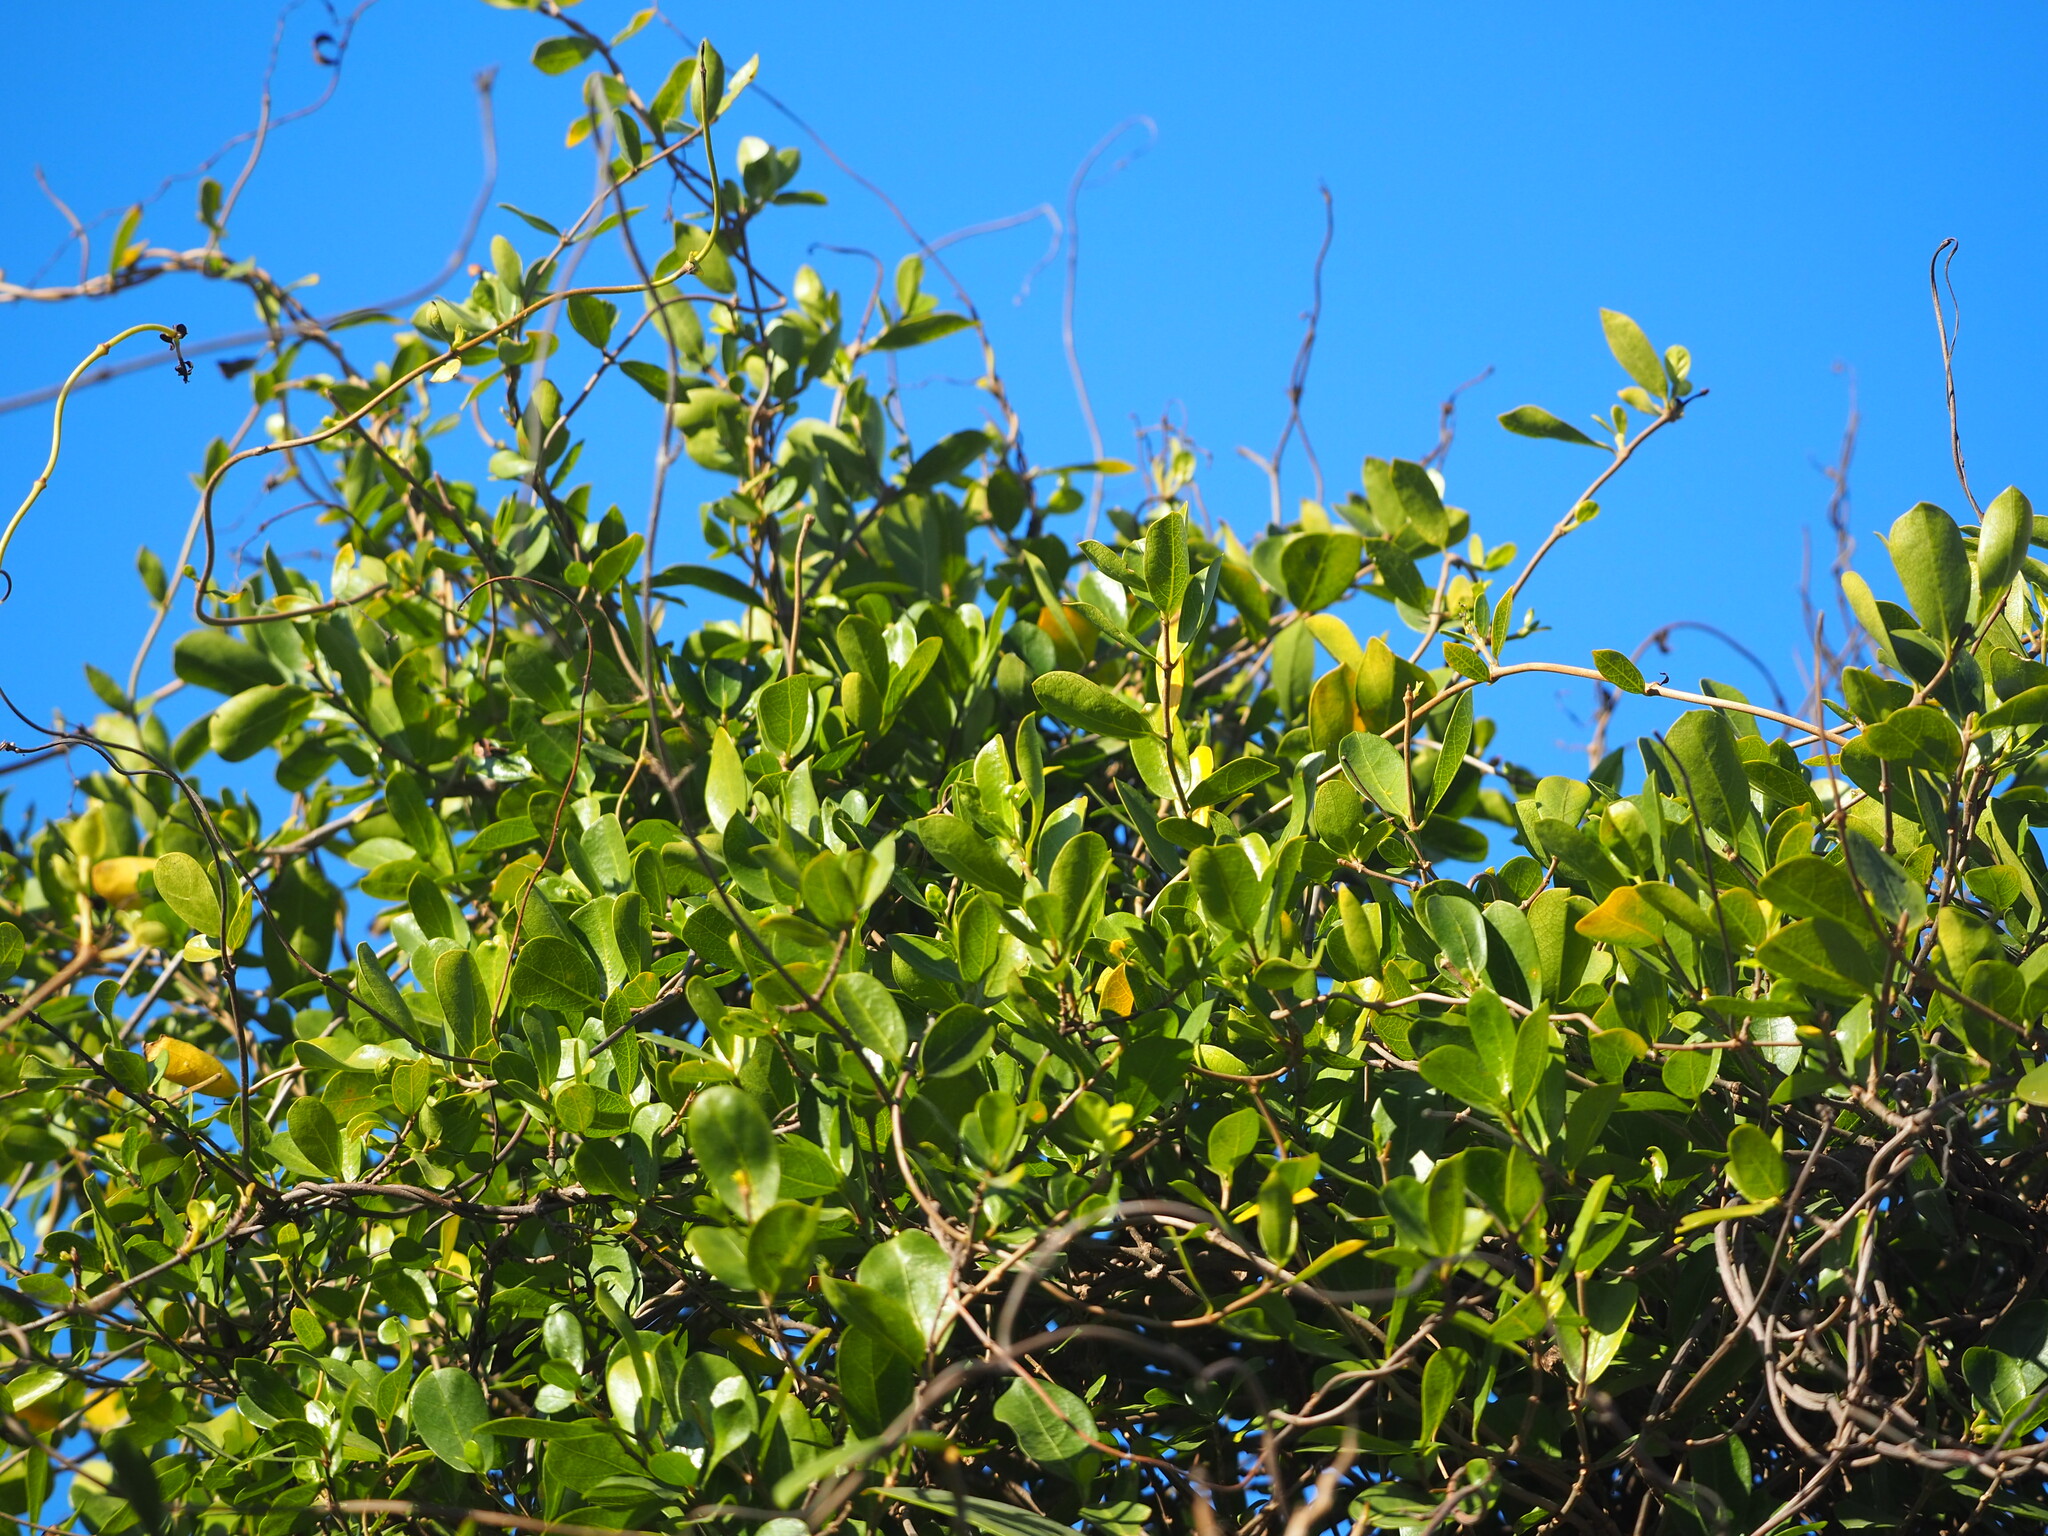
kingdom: Plantae
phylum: Tracheophyta
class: Magnoliopsida
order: Gentianales
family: Apocynaceae
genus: Gymnema
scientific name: Gymnema sylvestre
